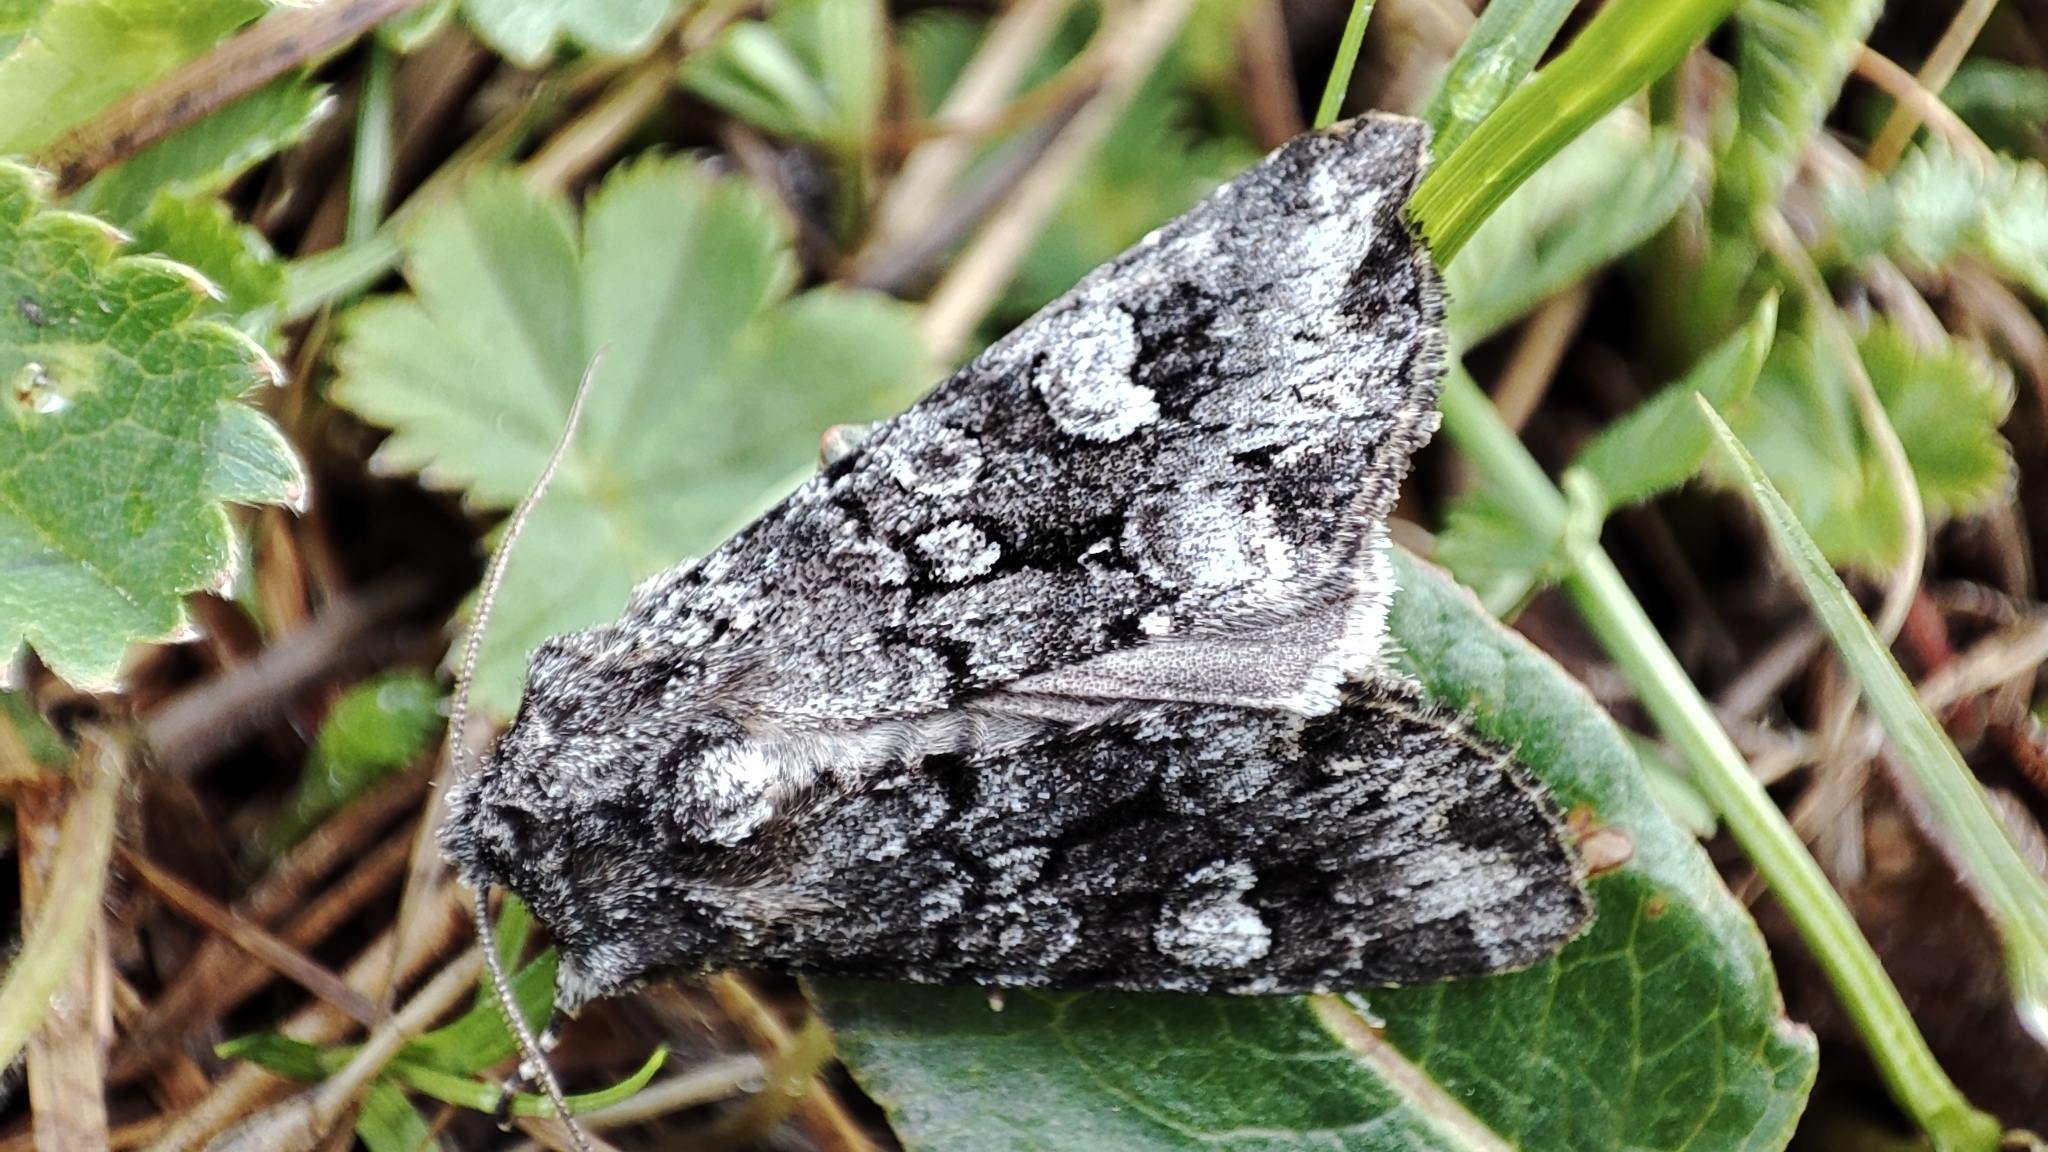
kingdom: Animalia
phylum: Arthropoda
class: Insecta
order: Lepidoptera
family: Noctuidae
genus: Papestra
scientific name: Papestra biren
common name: Glaucous shears
